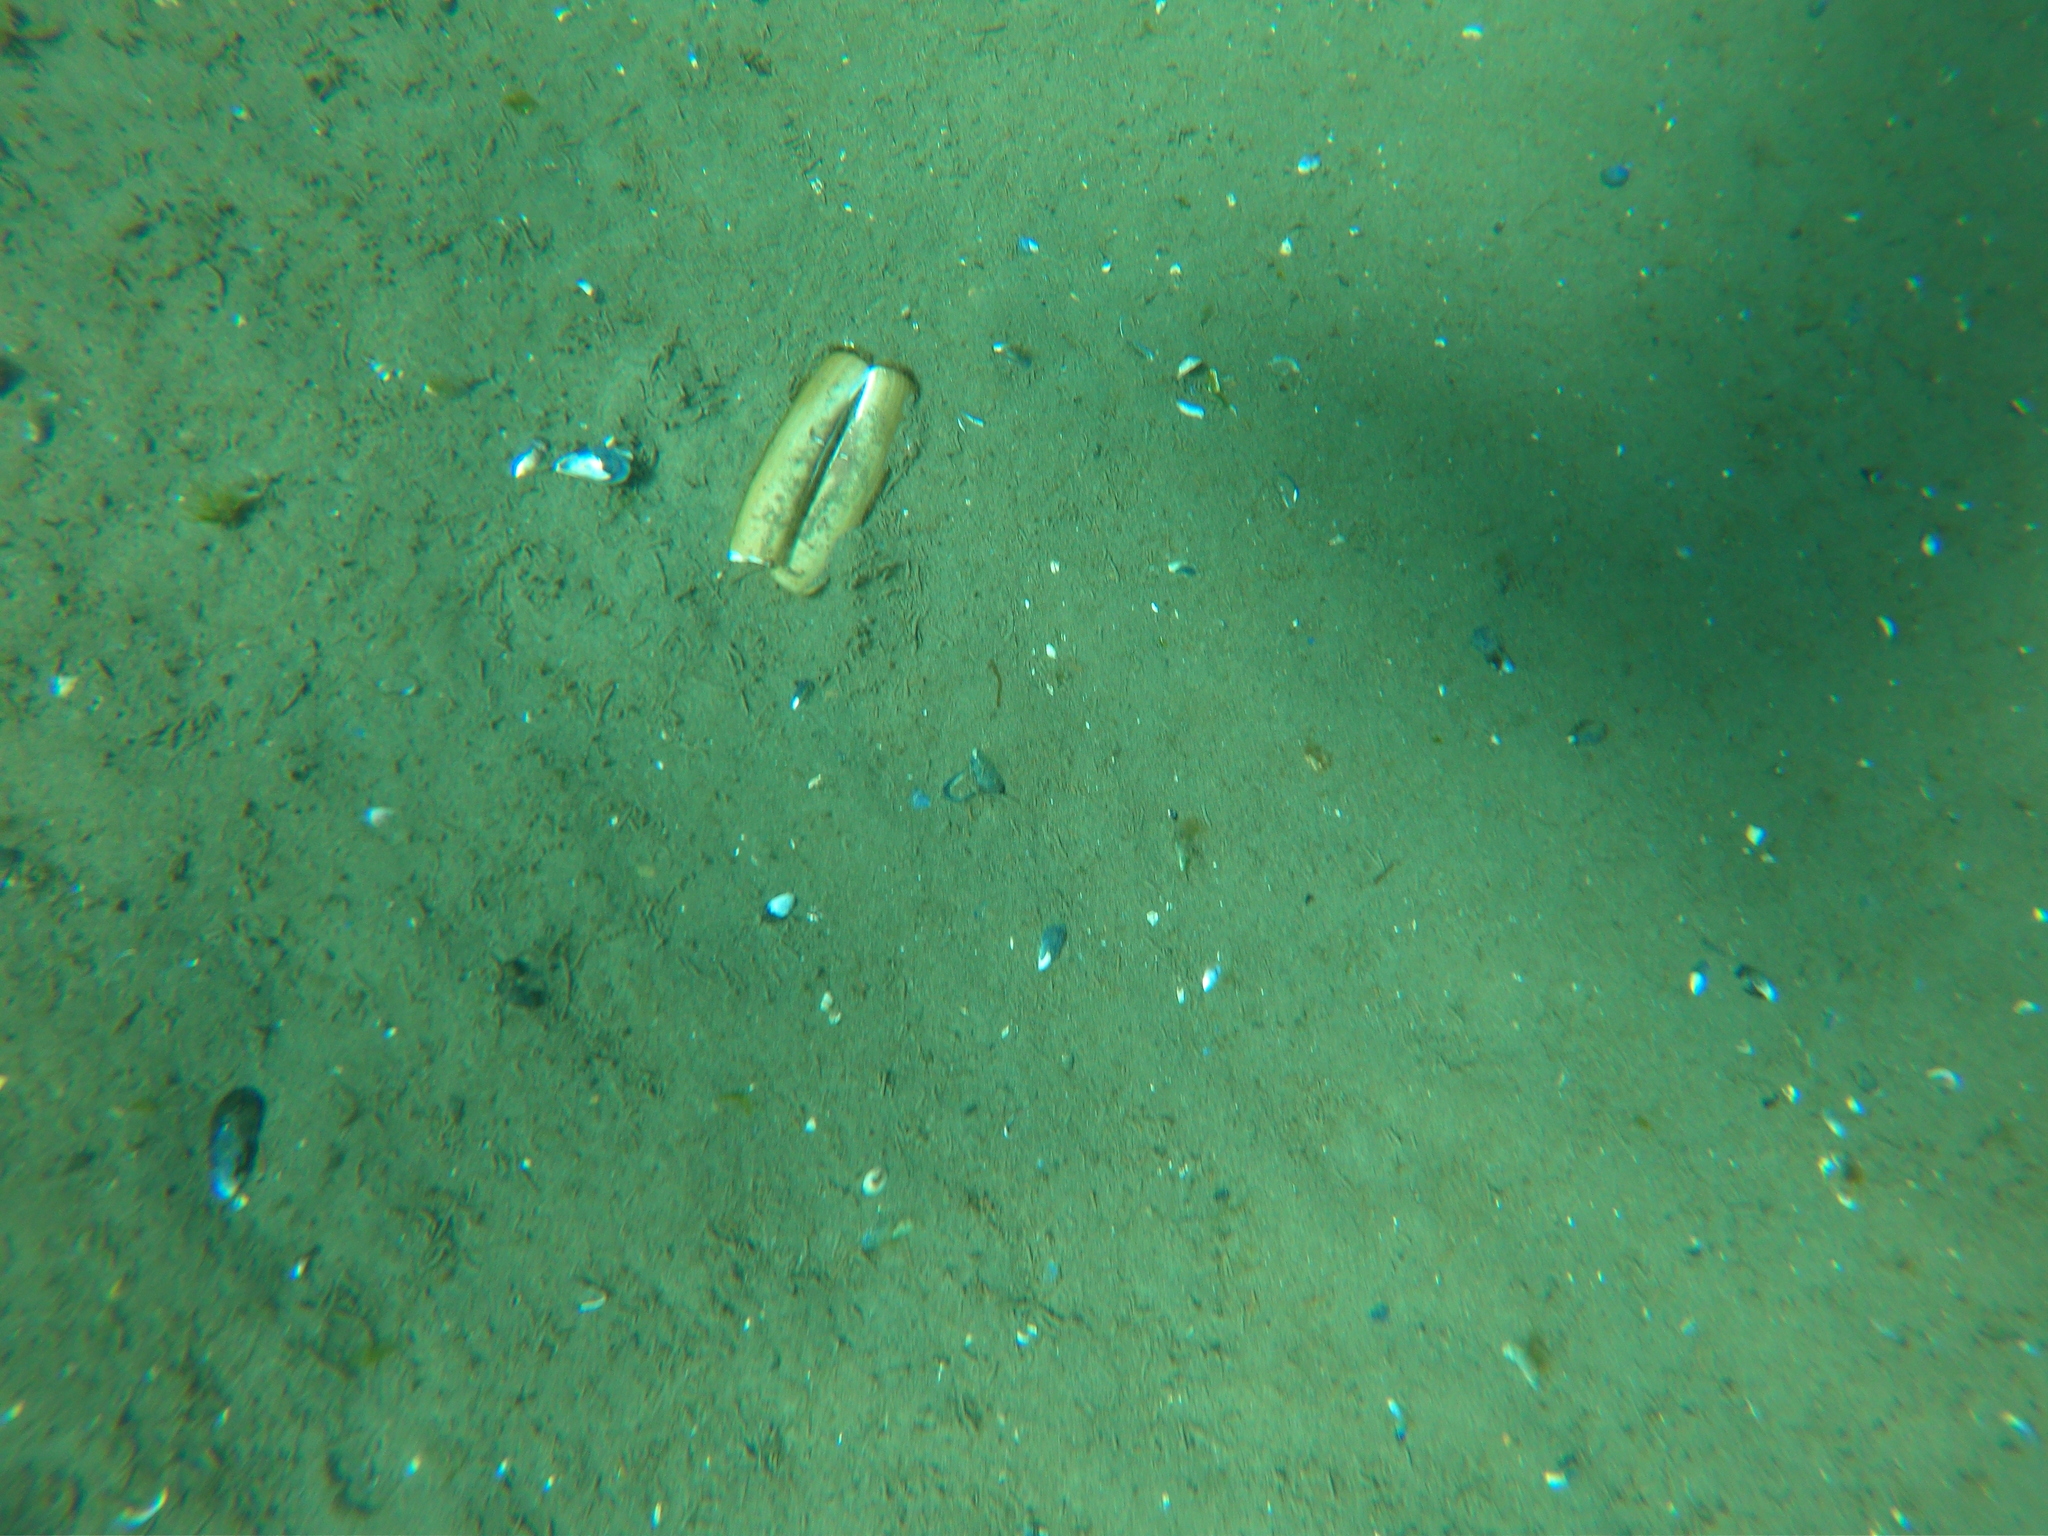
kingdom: Animalia
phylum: Mollusca
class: Bivalvia
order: Adapedonta
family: Pharidae
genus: Ensis
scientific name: Ensis macha
